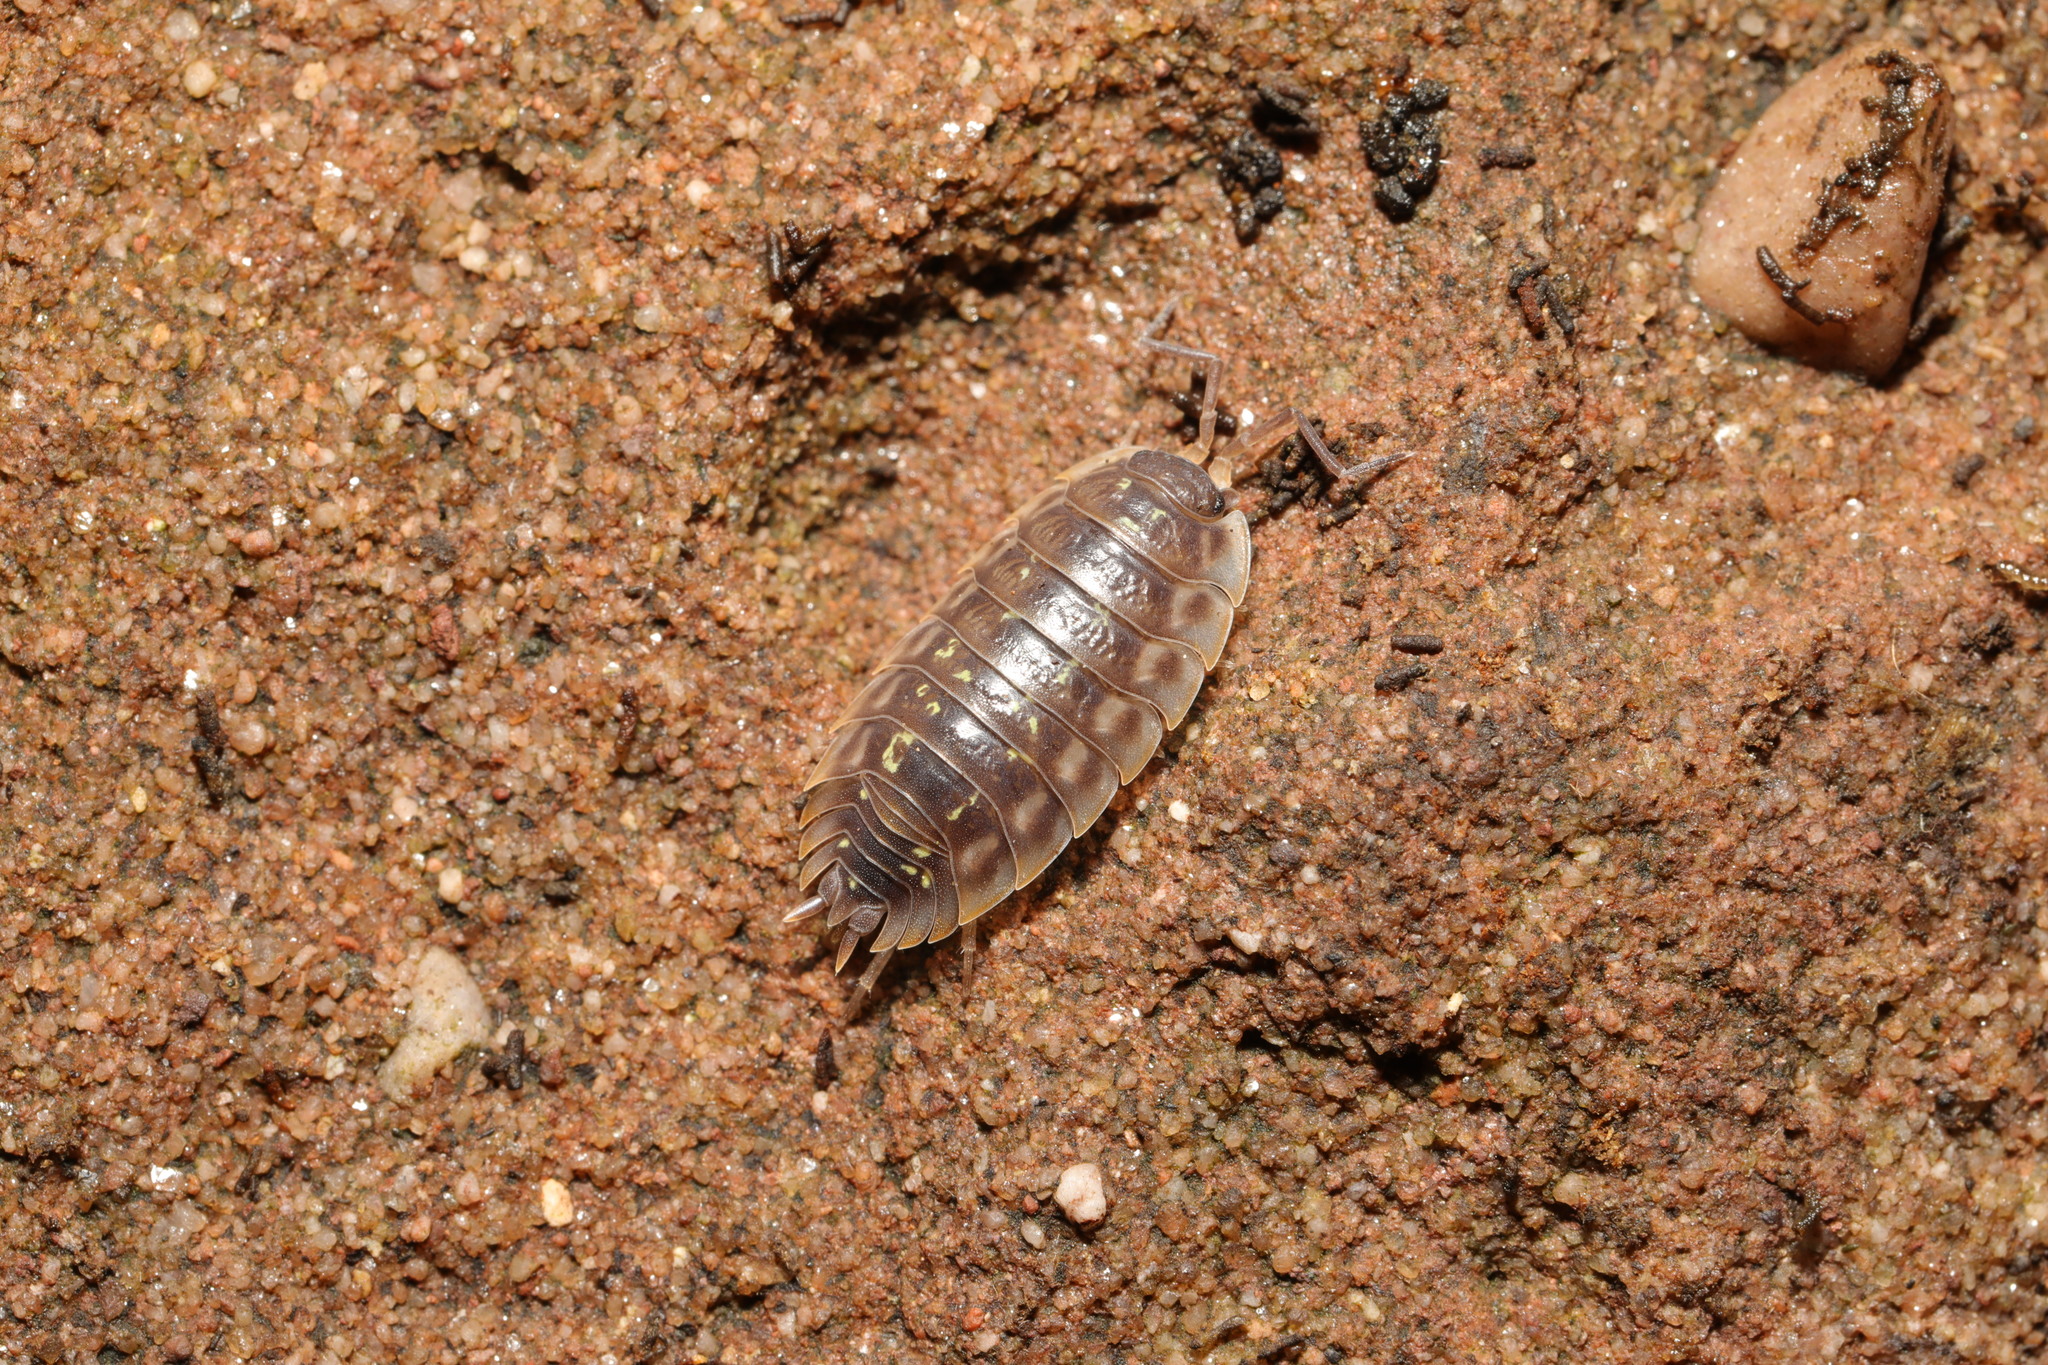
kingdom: Animalia
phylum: Arthropoda
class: Malacostraca
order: Isopoda
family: Oniscidae
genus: Oniscus
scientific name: Oniscus asellus
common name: Common shiny woodlouse
